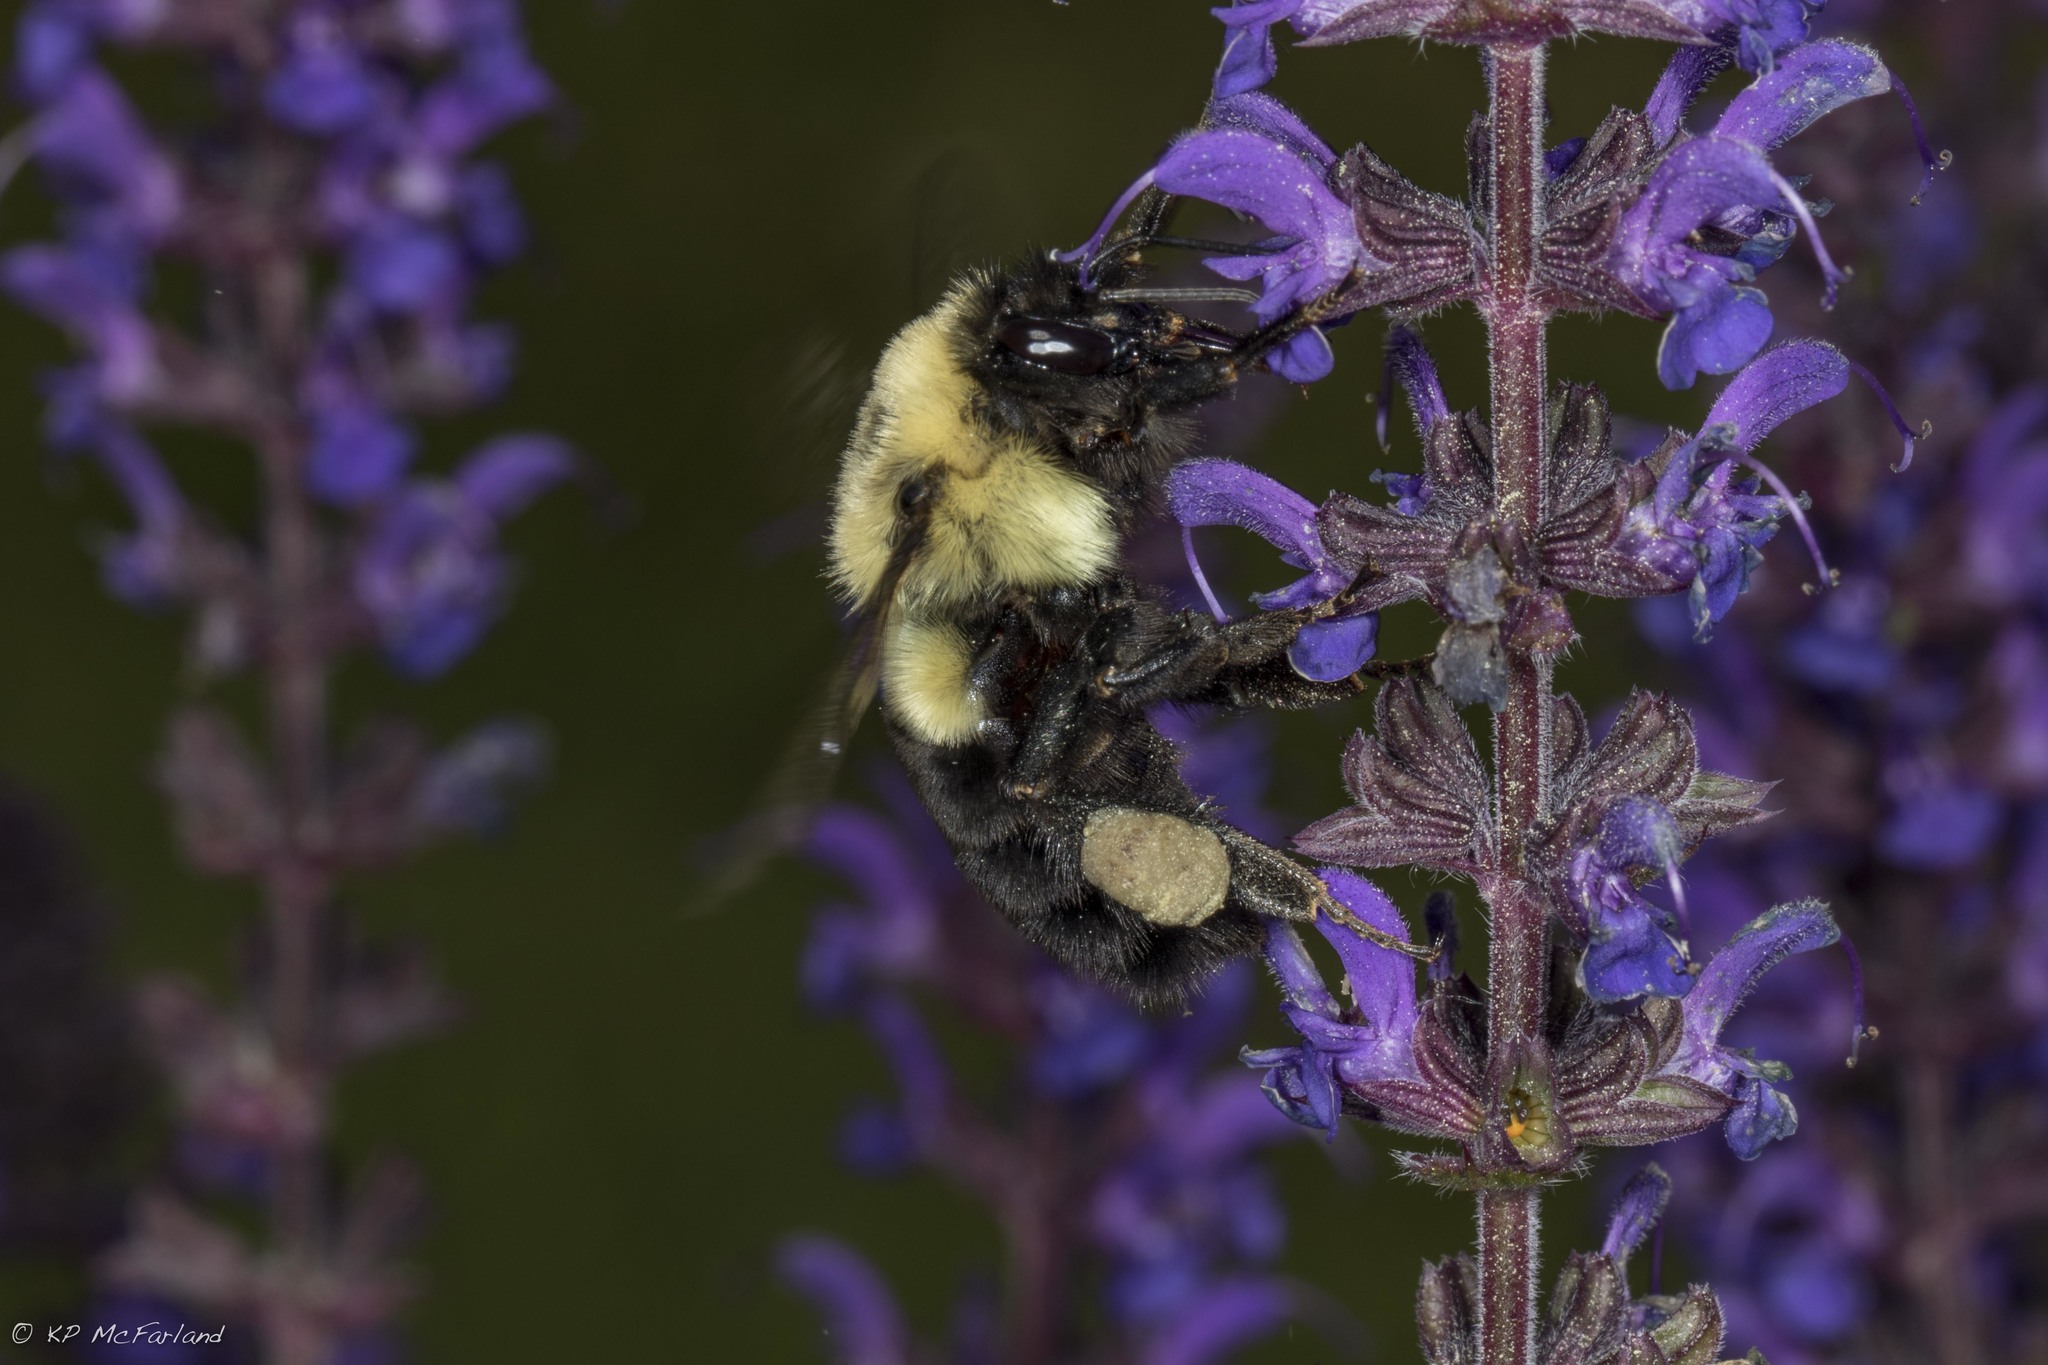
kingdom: Animalia
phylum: Arthropoda
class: Insecta
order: Hymenoptera
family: Apidae
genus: Bombus
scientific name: Bombus impatiens
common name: Common eastern bumble bee
